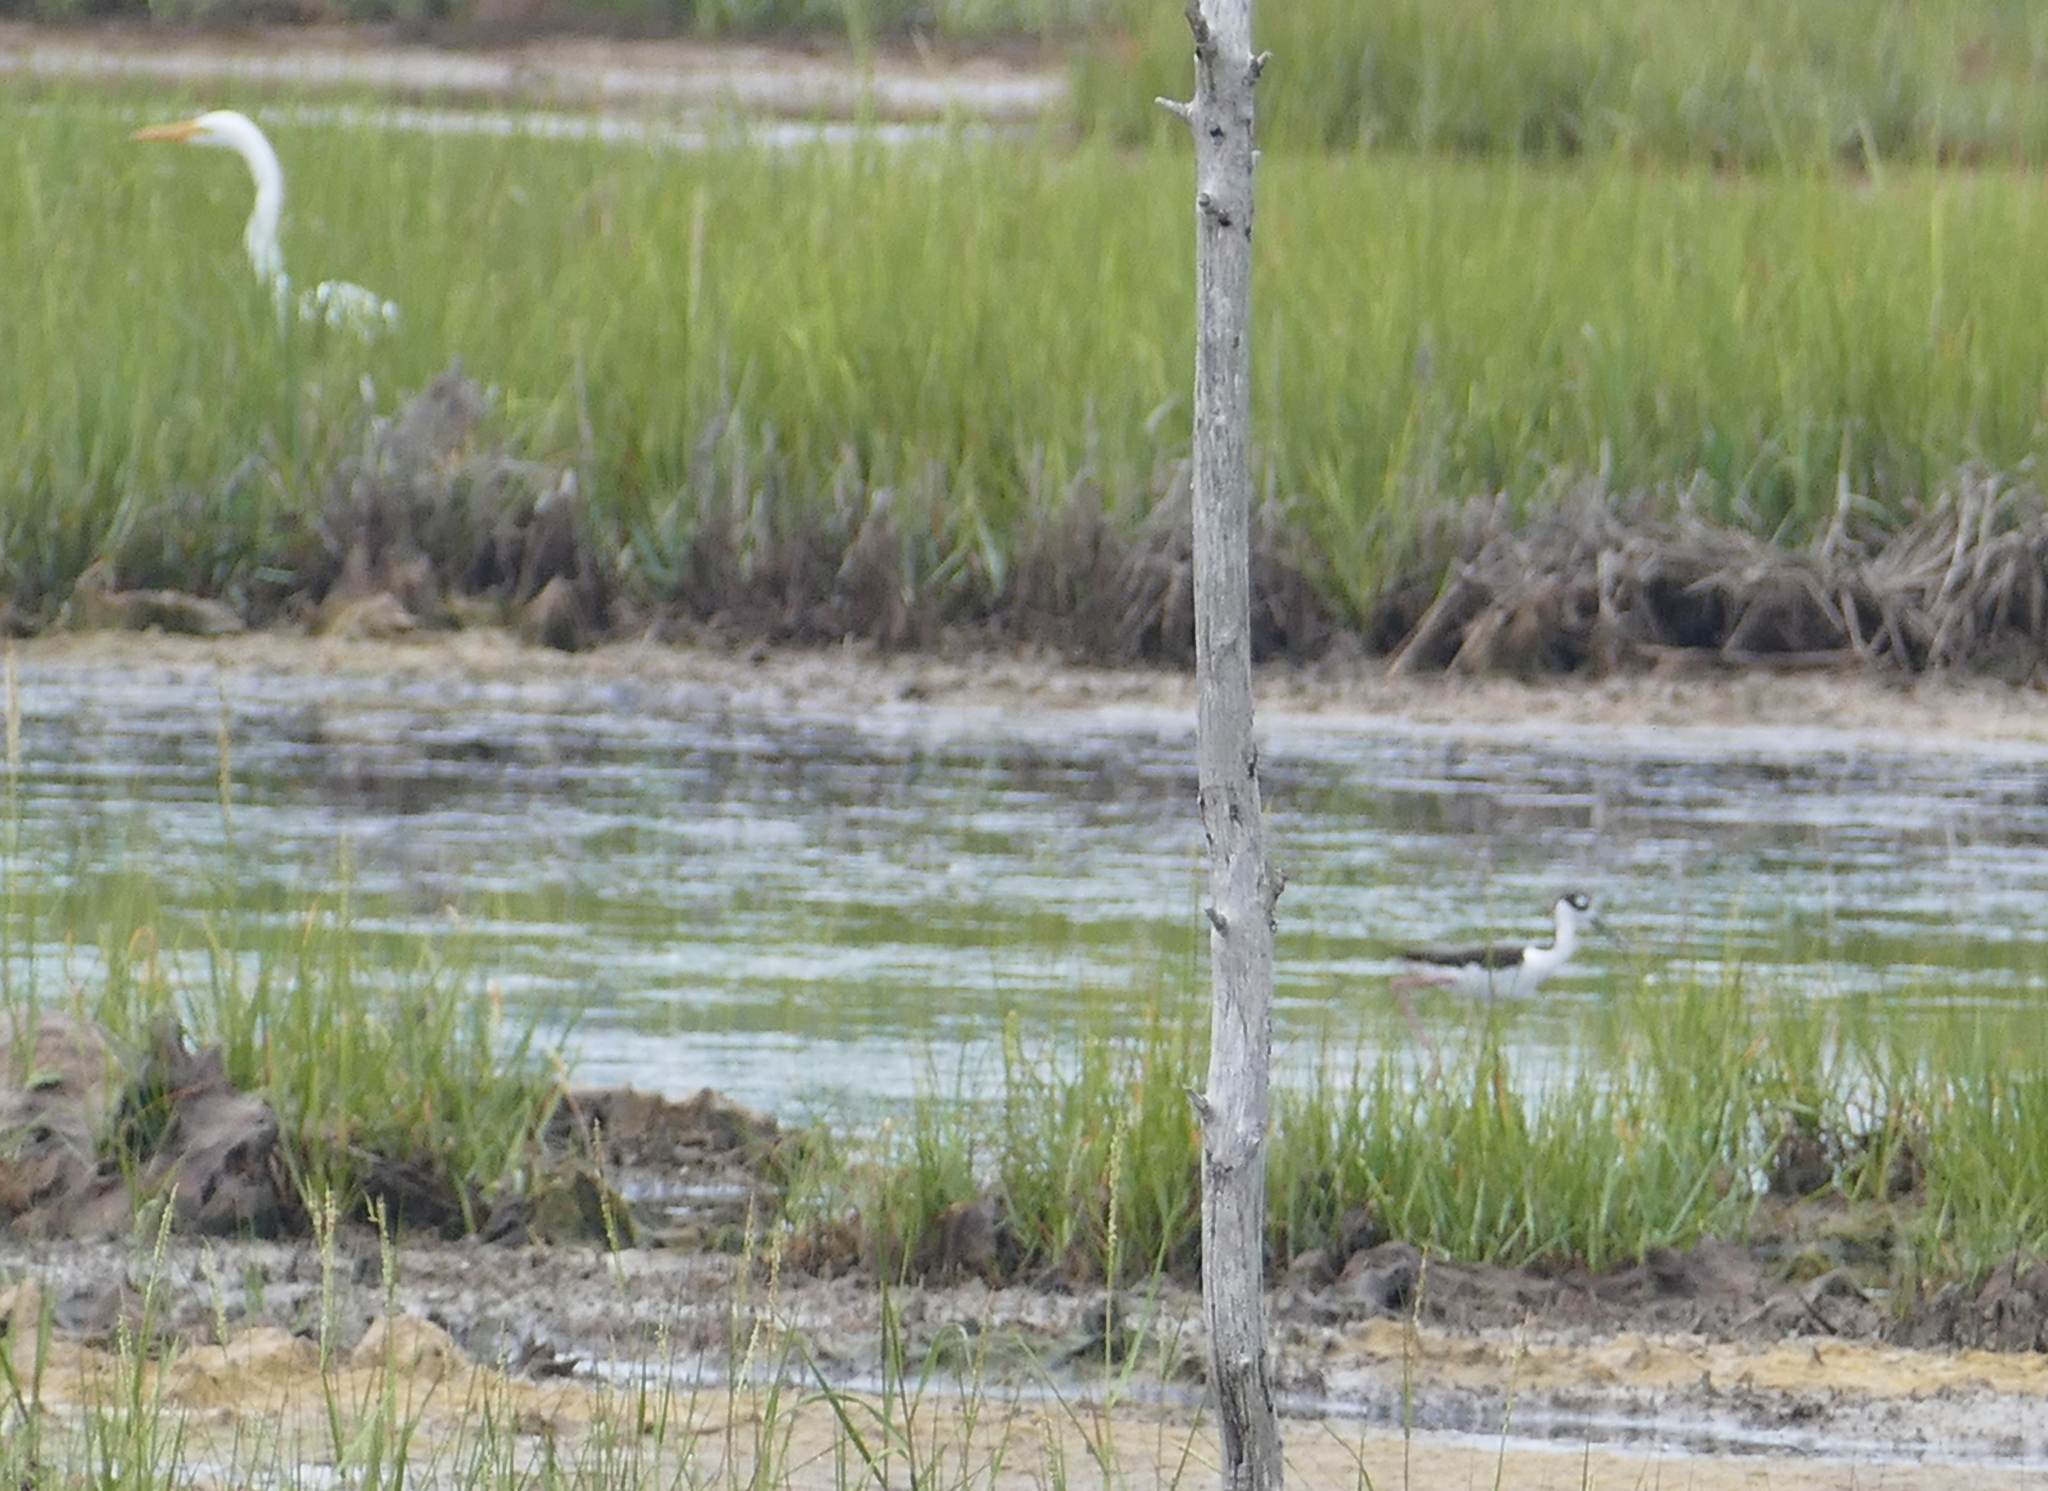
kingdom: Animalia
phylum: Chordata
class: Aves
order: Charadriiformes
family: Recurvirostridae
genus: Himantopus
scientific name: Himantopus mexicanus
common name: Black-necked stilt
